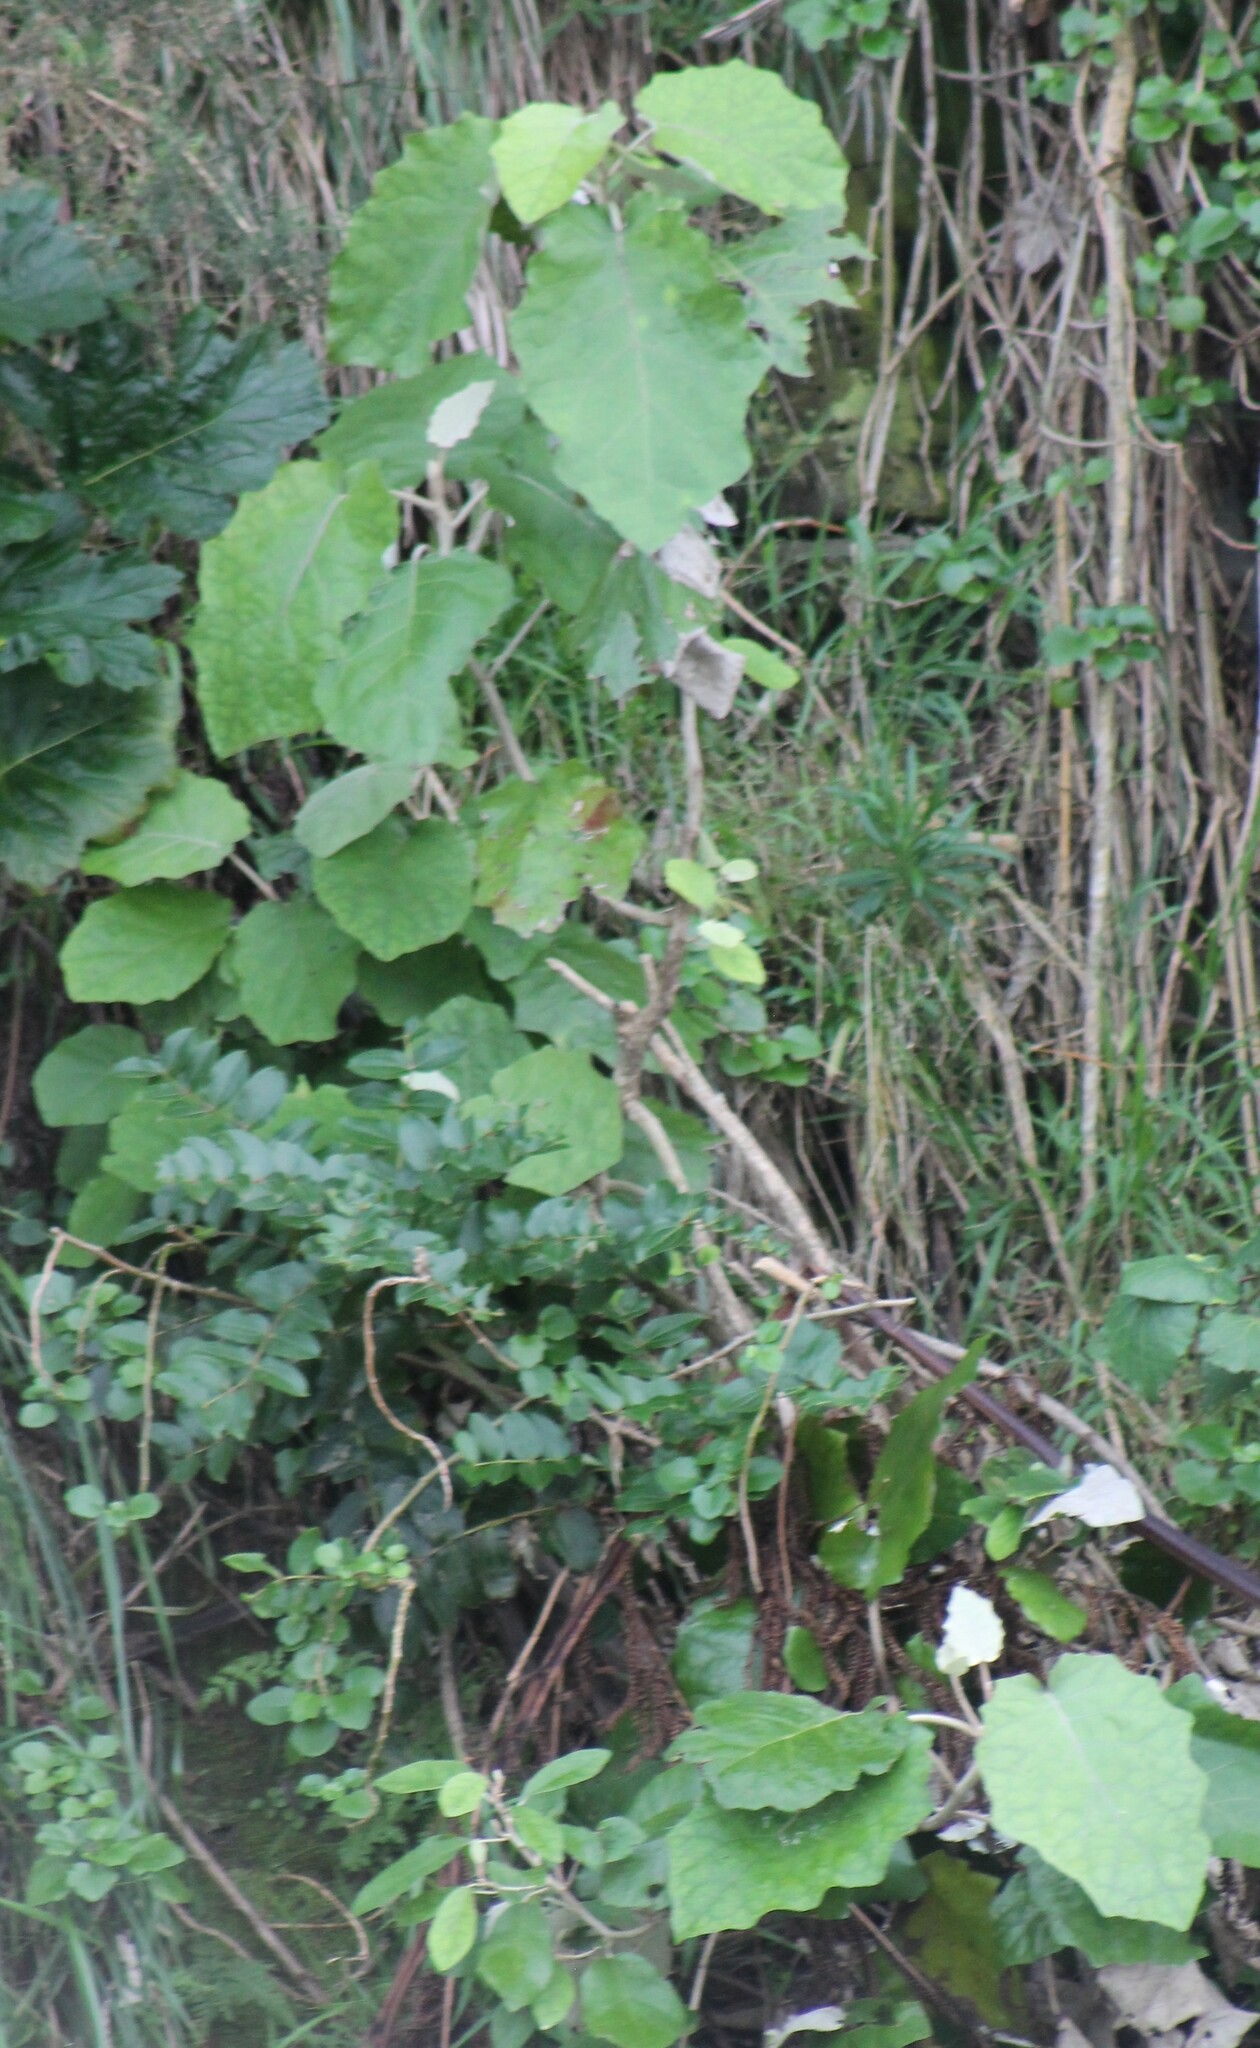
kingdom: Plantae
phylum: Tracheophyta
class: Magnoliopsida
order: Asterales
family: Asteraceae
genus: Brachyglottis
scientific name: Brachyglottis repanda
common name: Hedge ragwort
